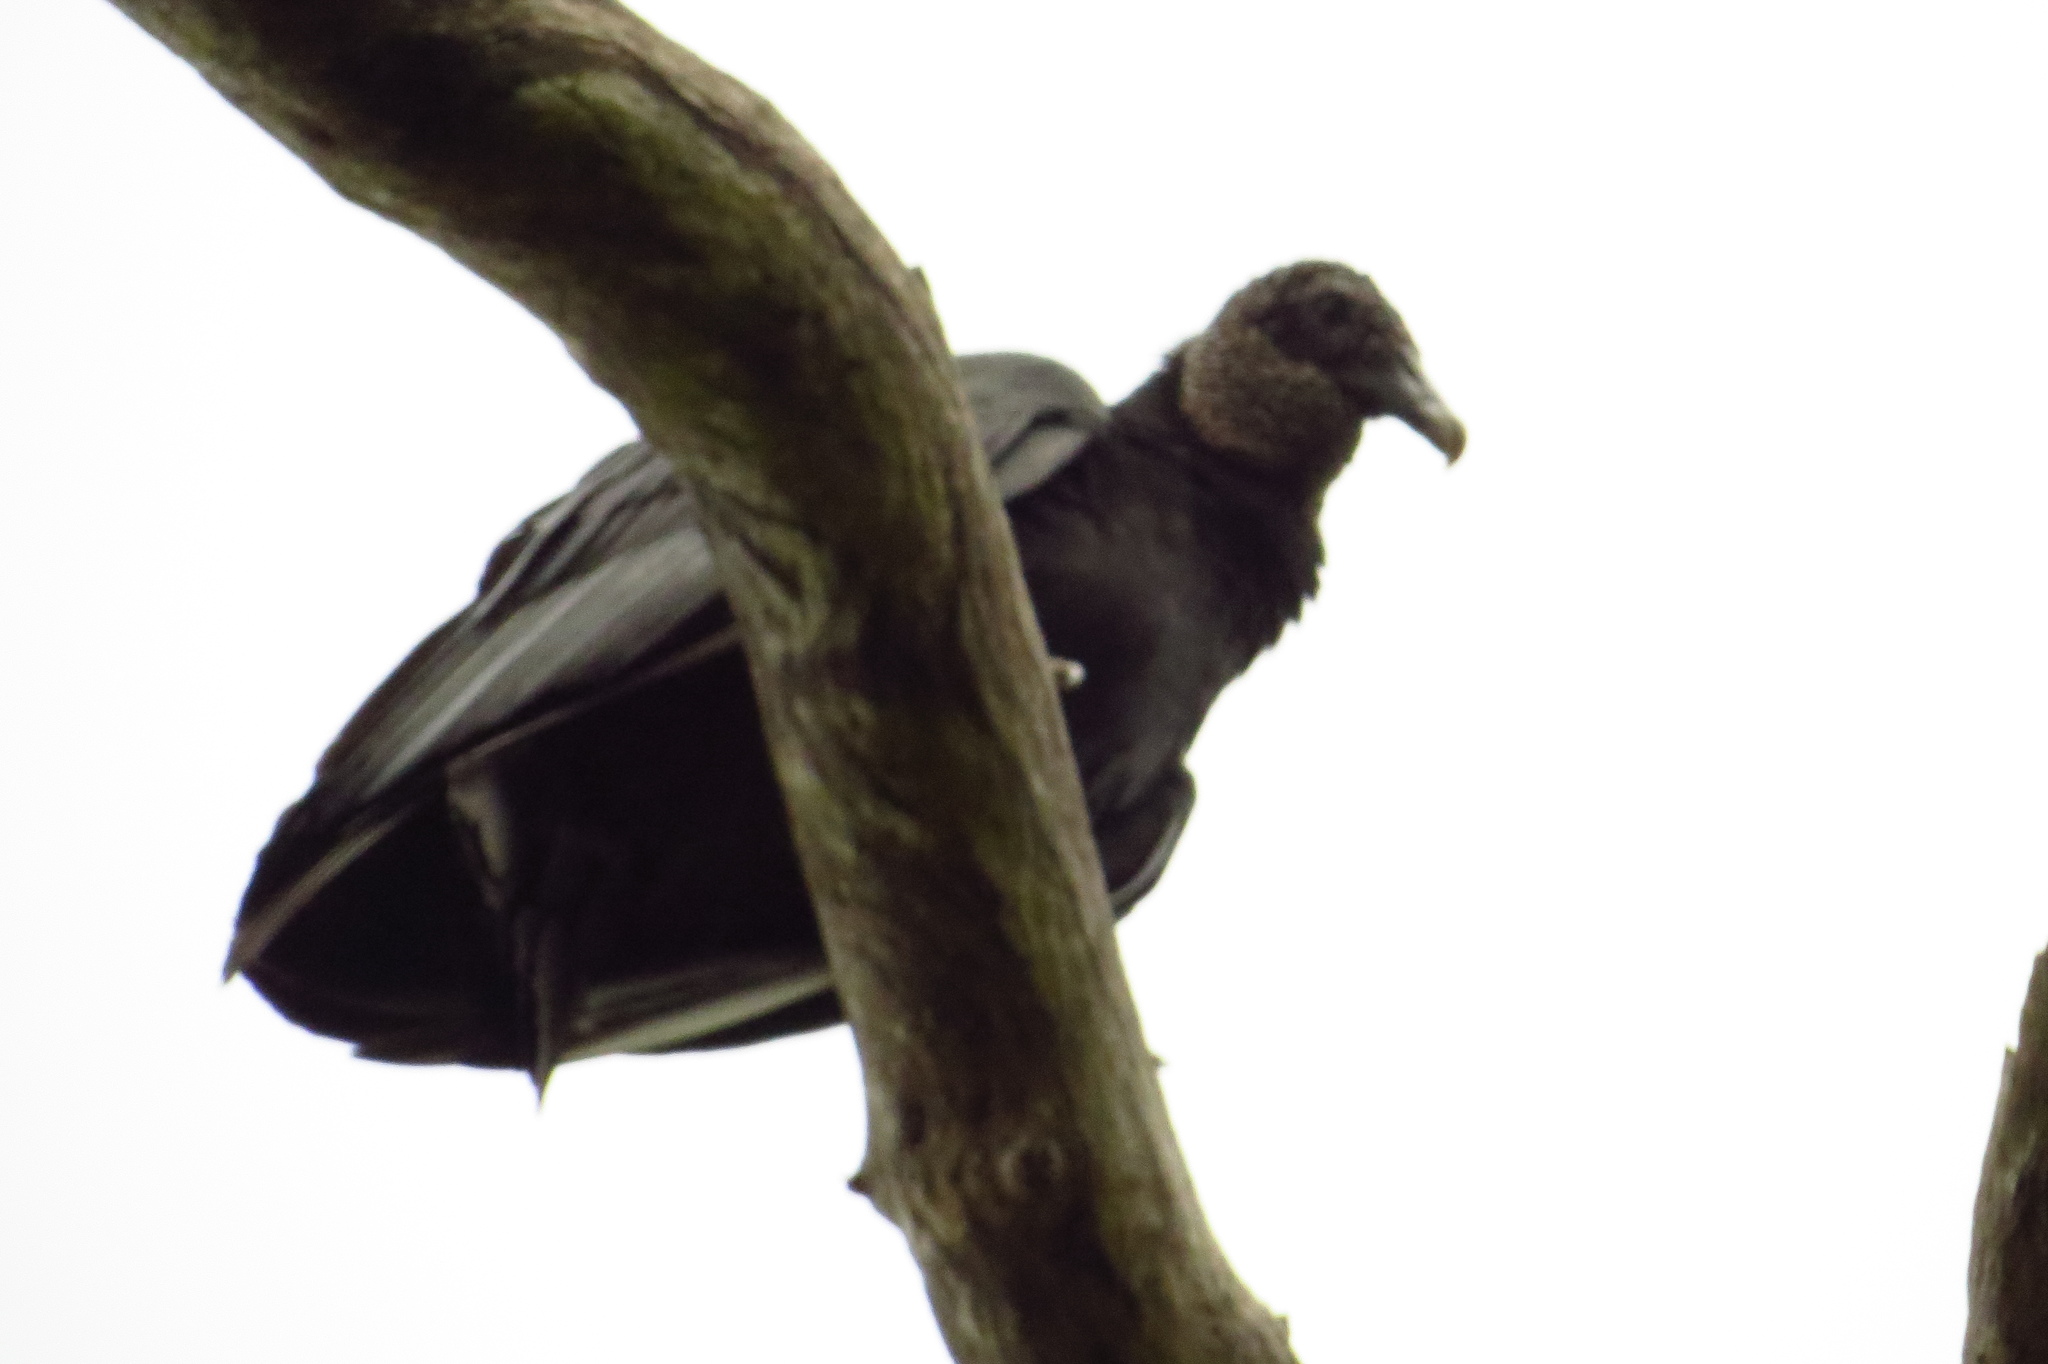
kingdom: Animalia
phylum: Chordata
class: Aves
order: Accipitriformes
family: Cathartidae
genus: Coragyps
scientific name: Coragyps atratus
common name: Black vulture
